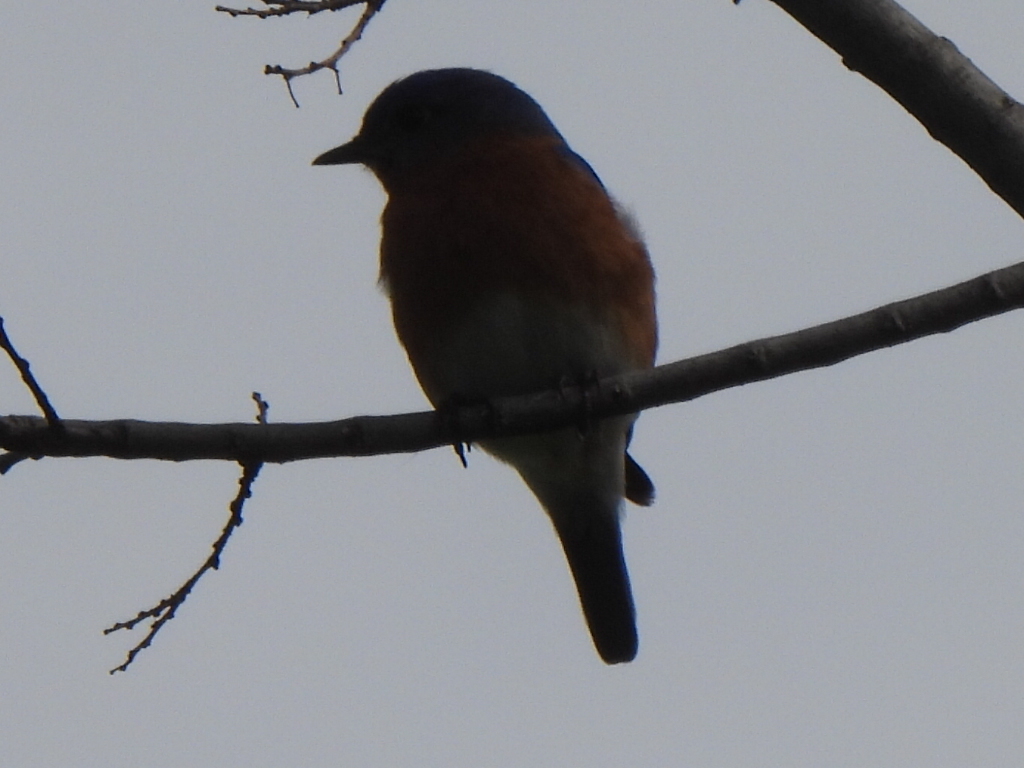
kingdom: Animalia
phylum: Chordata
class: Aves
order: Passeriformes
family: Turdidae
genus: Sialia
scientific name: Sialia sialis
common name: Eastern bluebird
